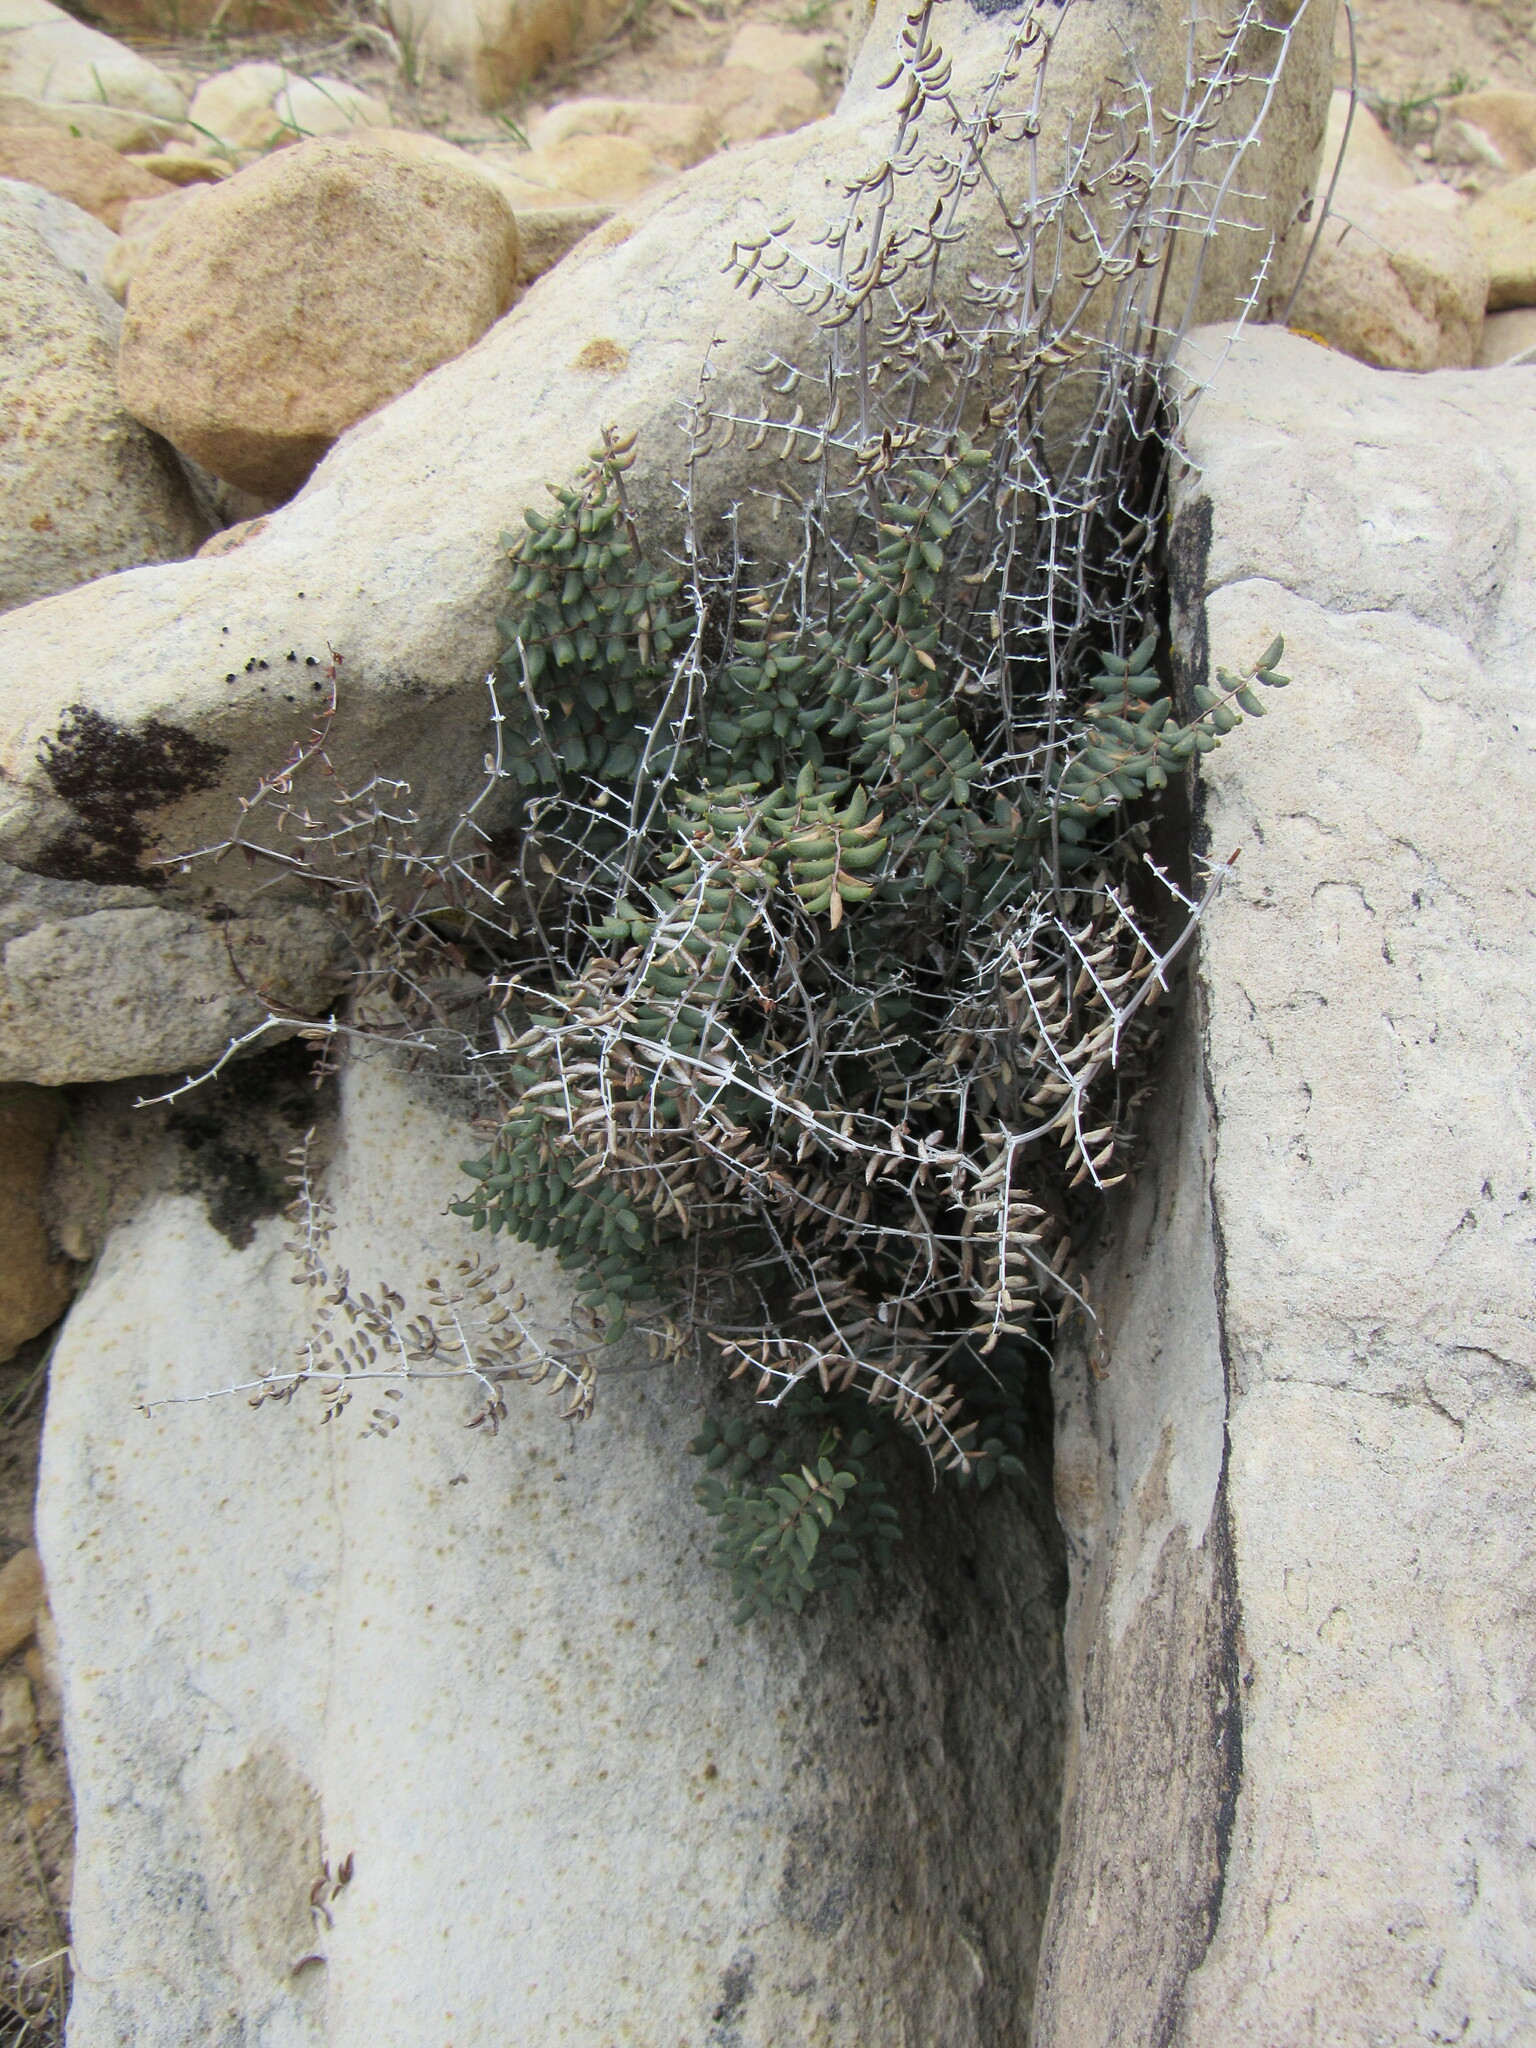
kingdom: Plantae
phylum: Tracheophyta
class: Polypodiopsida
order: Polypodiales
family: Pteridaceae
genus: Pellaea
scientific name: Pellaea truncata
